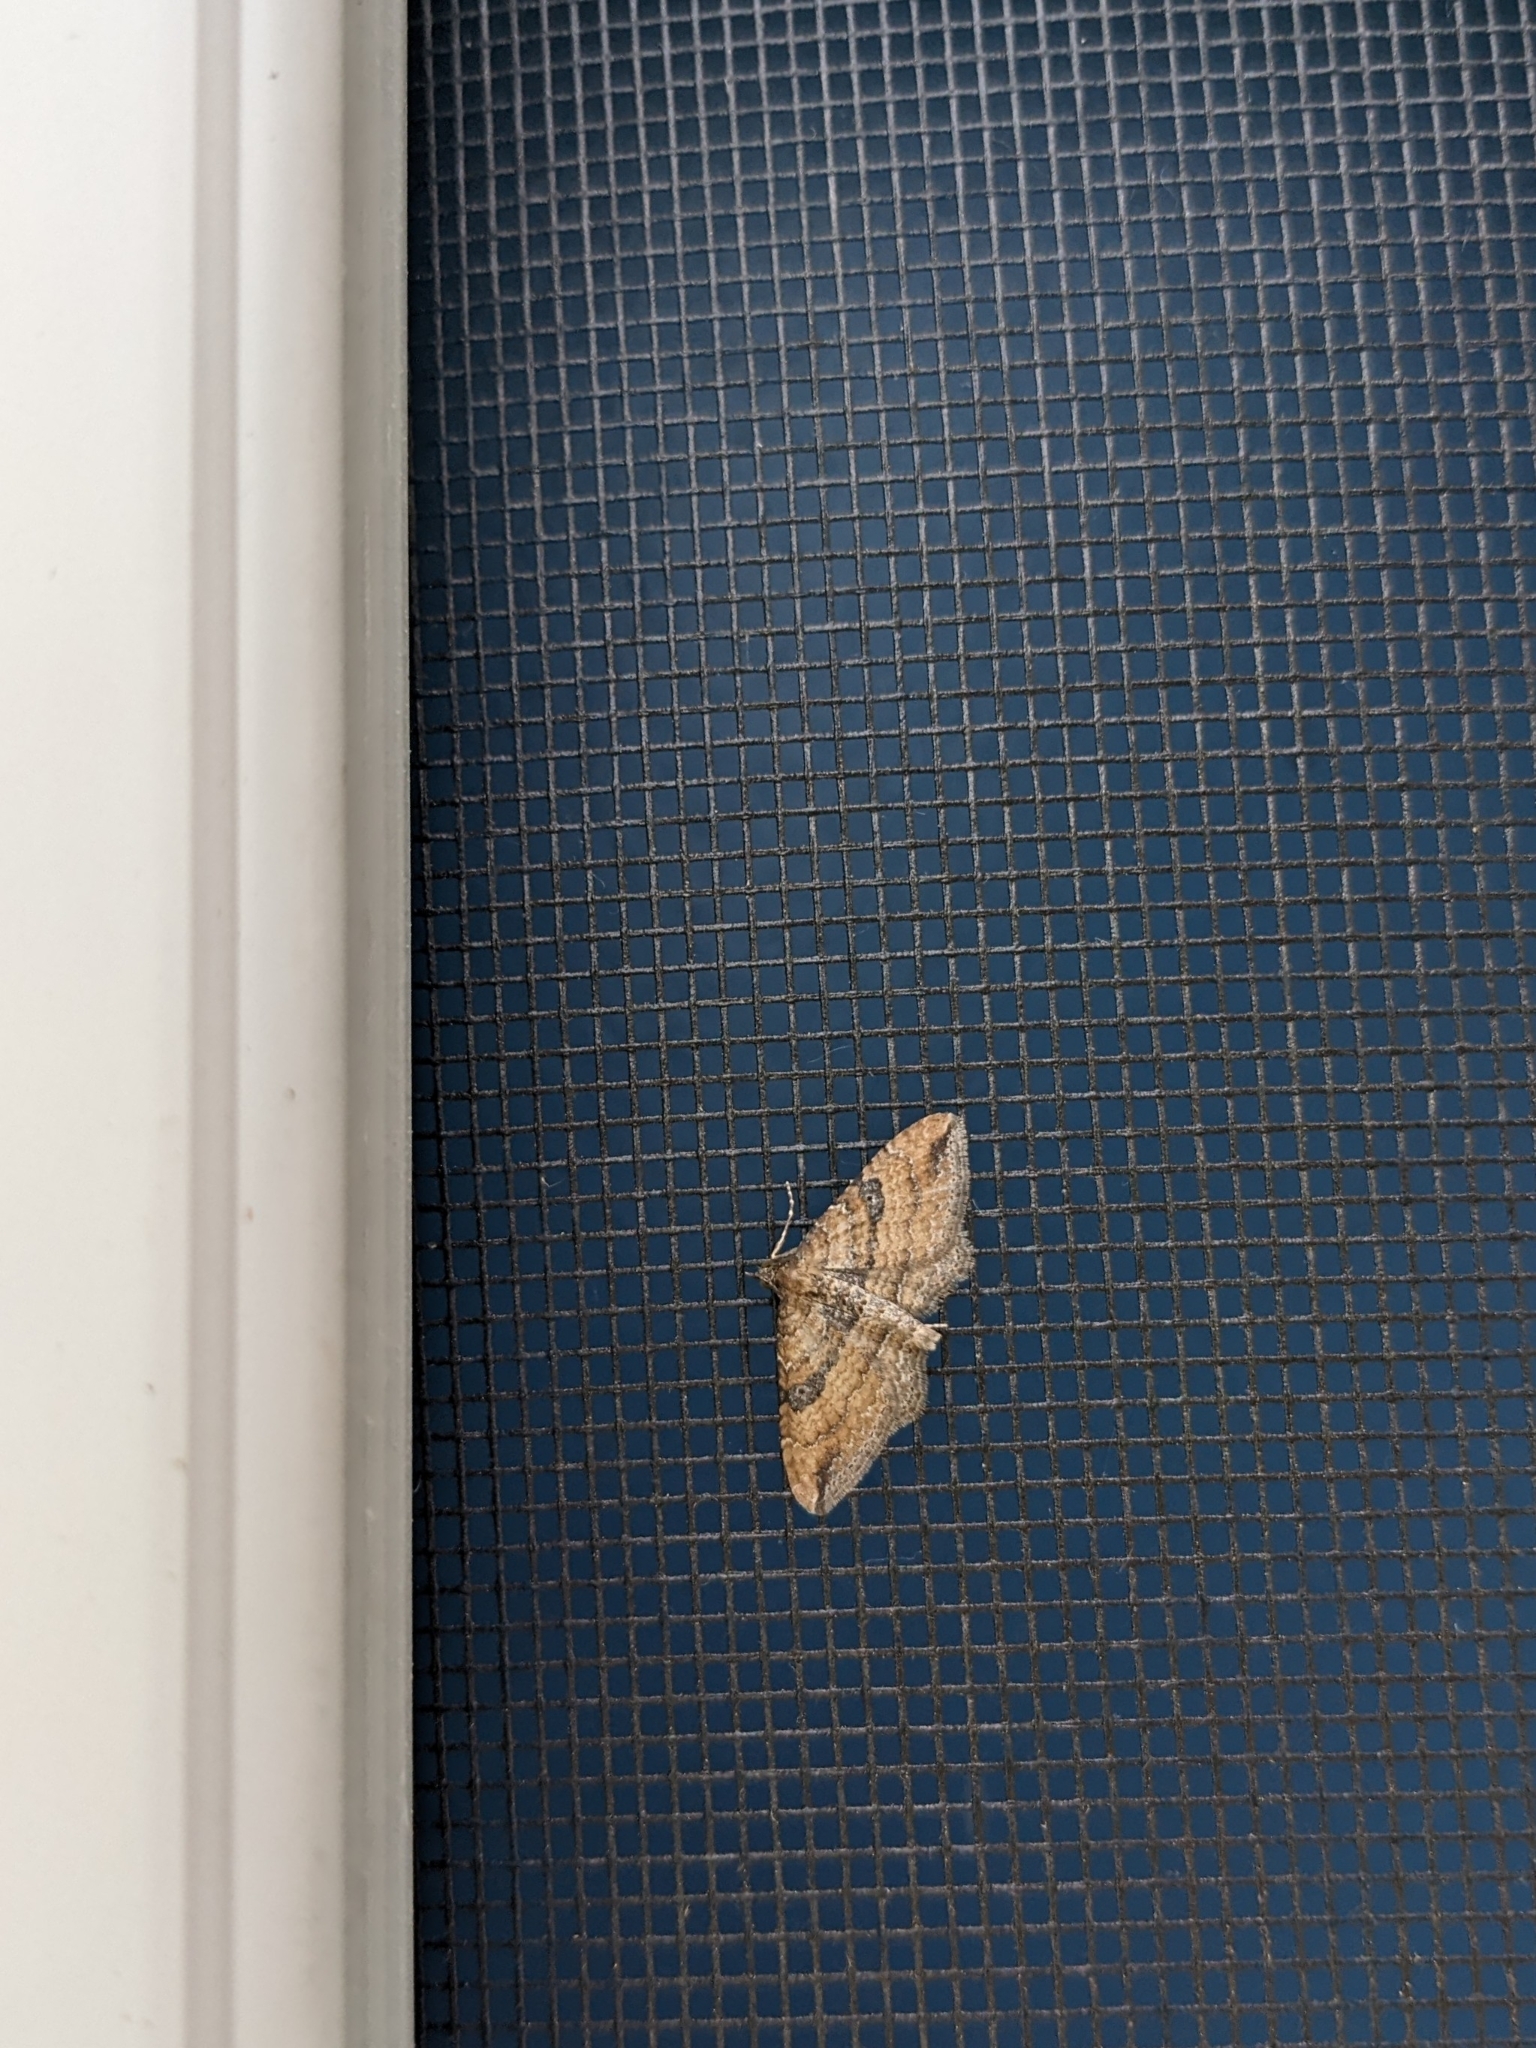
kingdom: Animalia
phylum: Arthropoda
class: Insecta
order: Lepidoptera
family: Geometridae
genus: Orthonama
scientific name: Orthonama obstipata
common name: The gem
